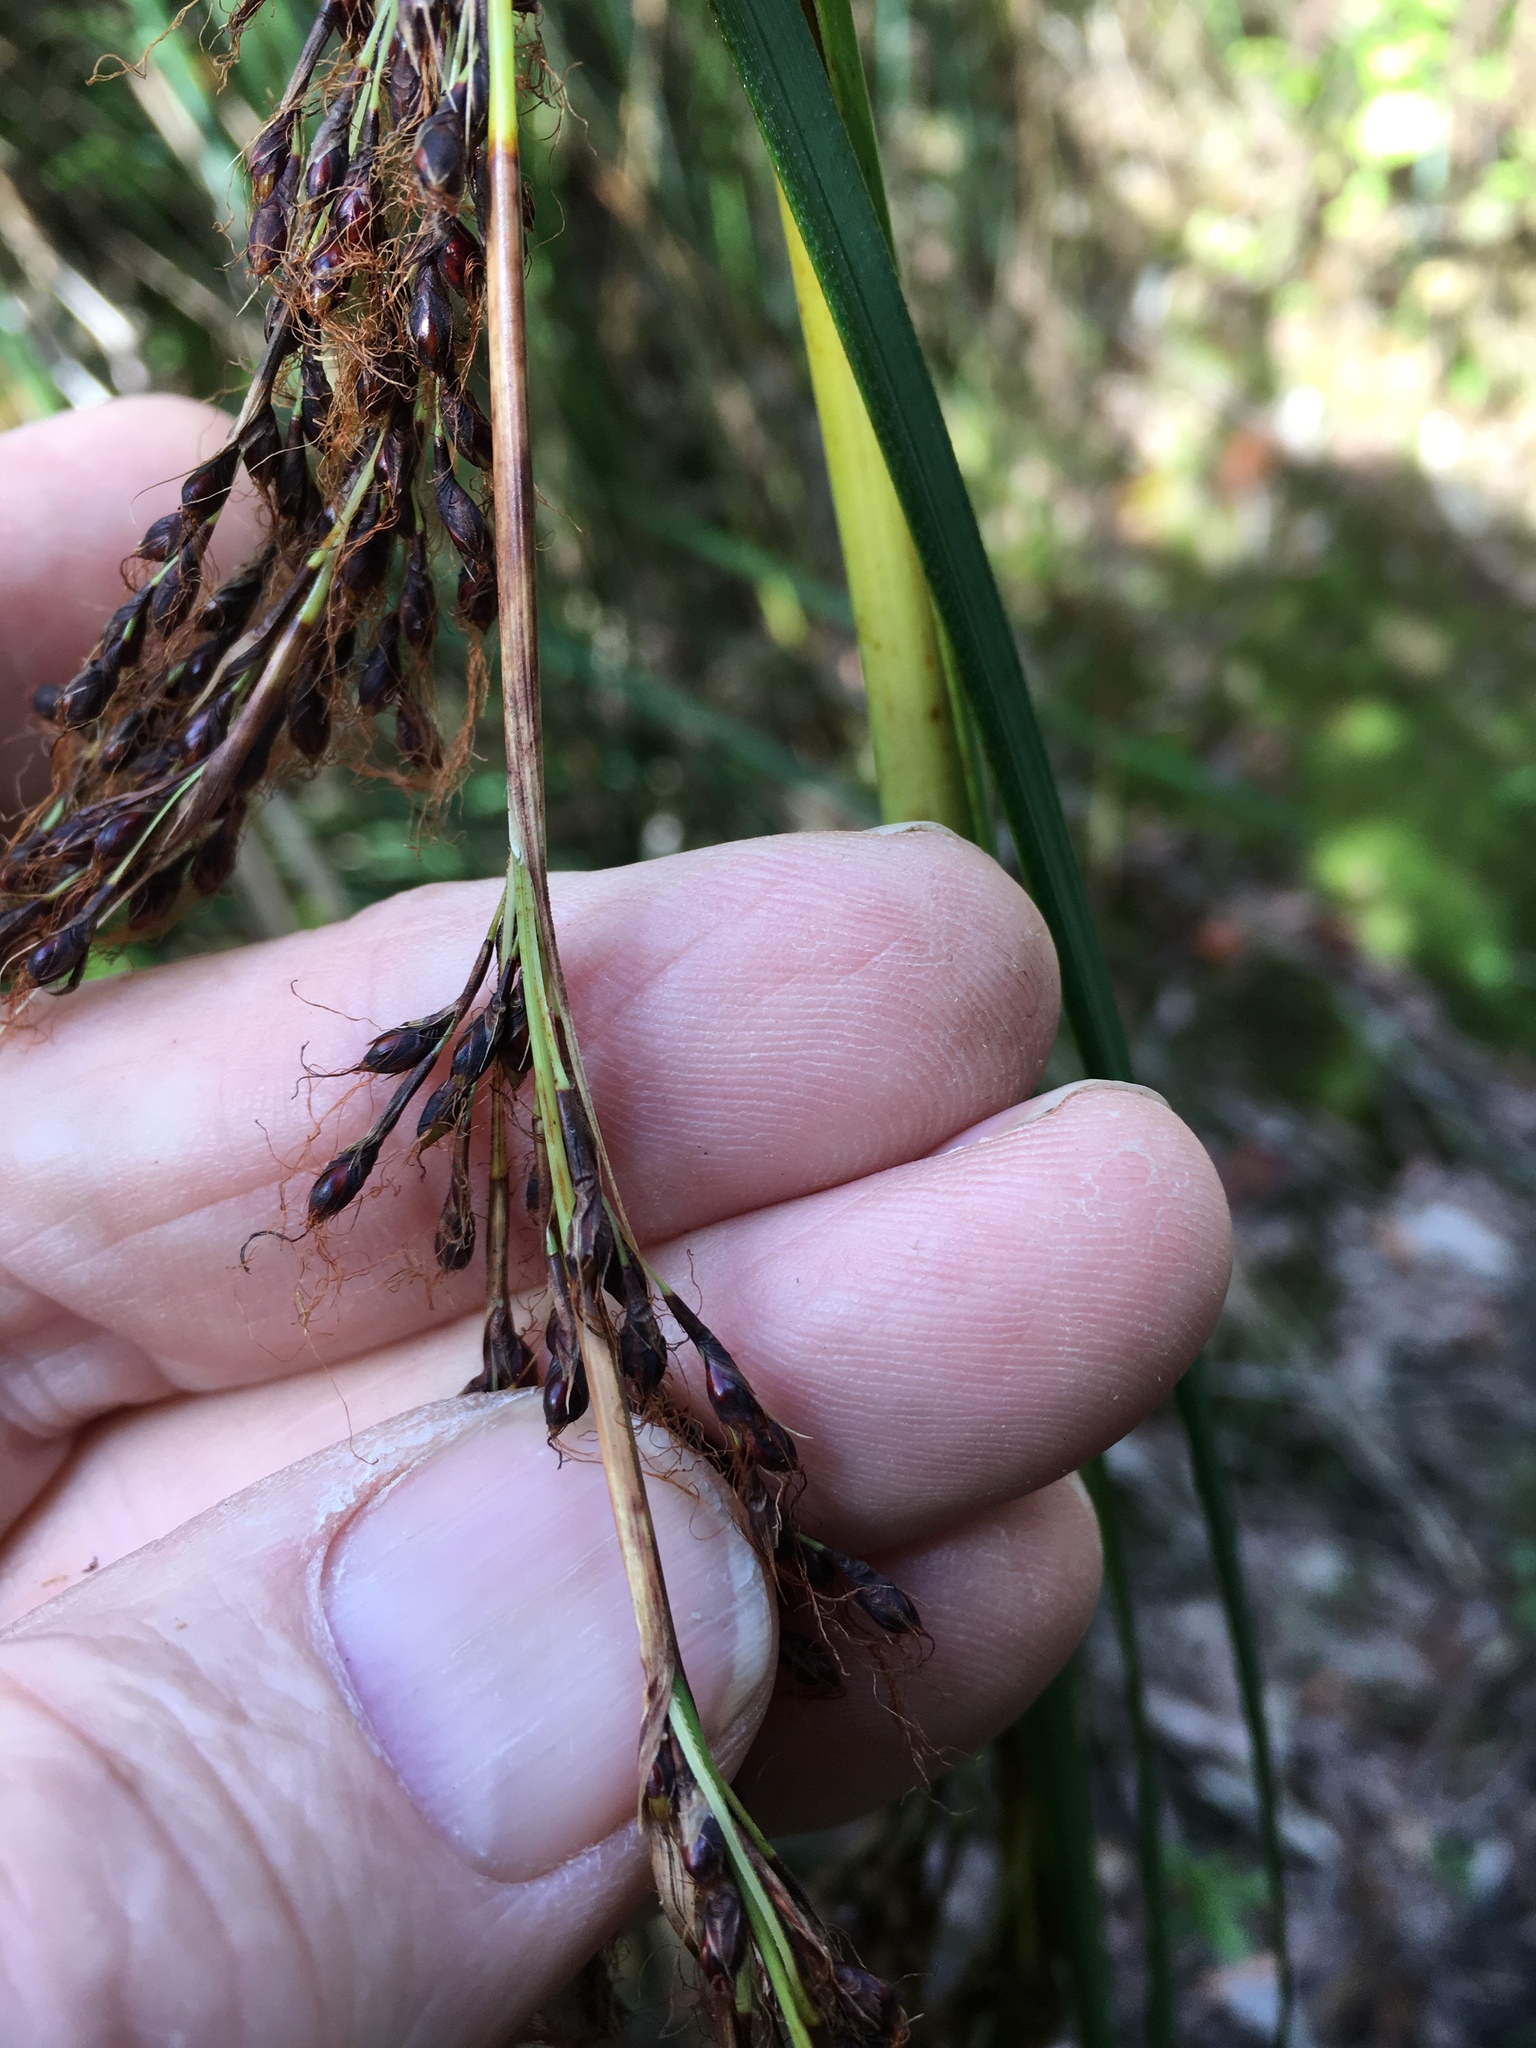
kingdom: Plantae
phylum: Tracheophyta
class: Liliopsida
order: Poales
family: Cyperaceae
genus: Gahnia
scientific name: Gahnia setifolia
